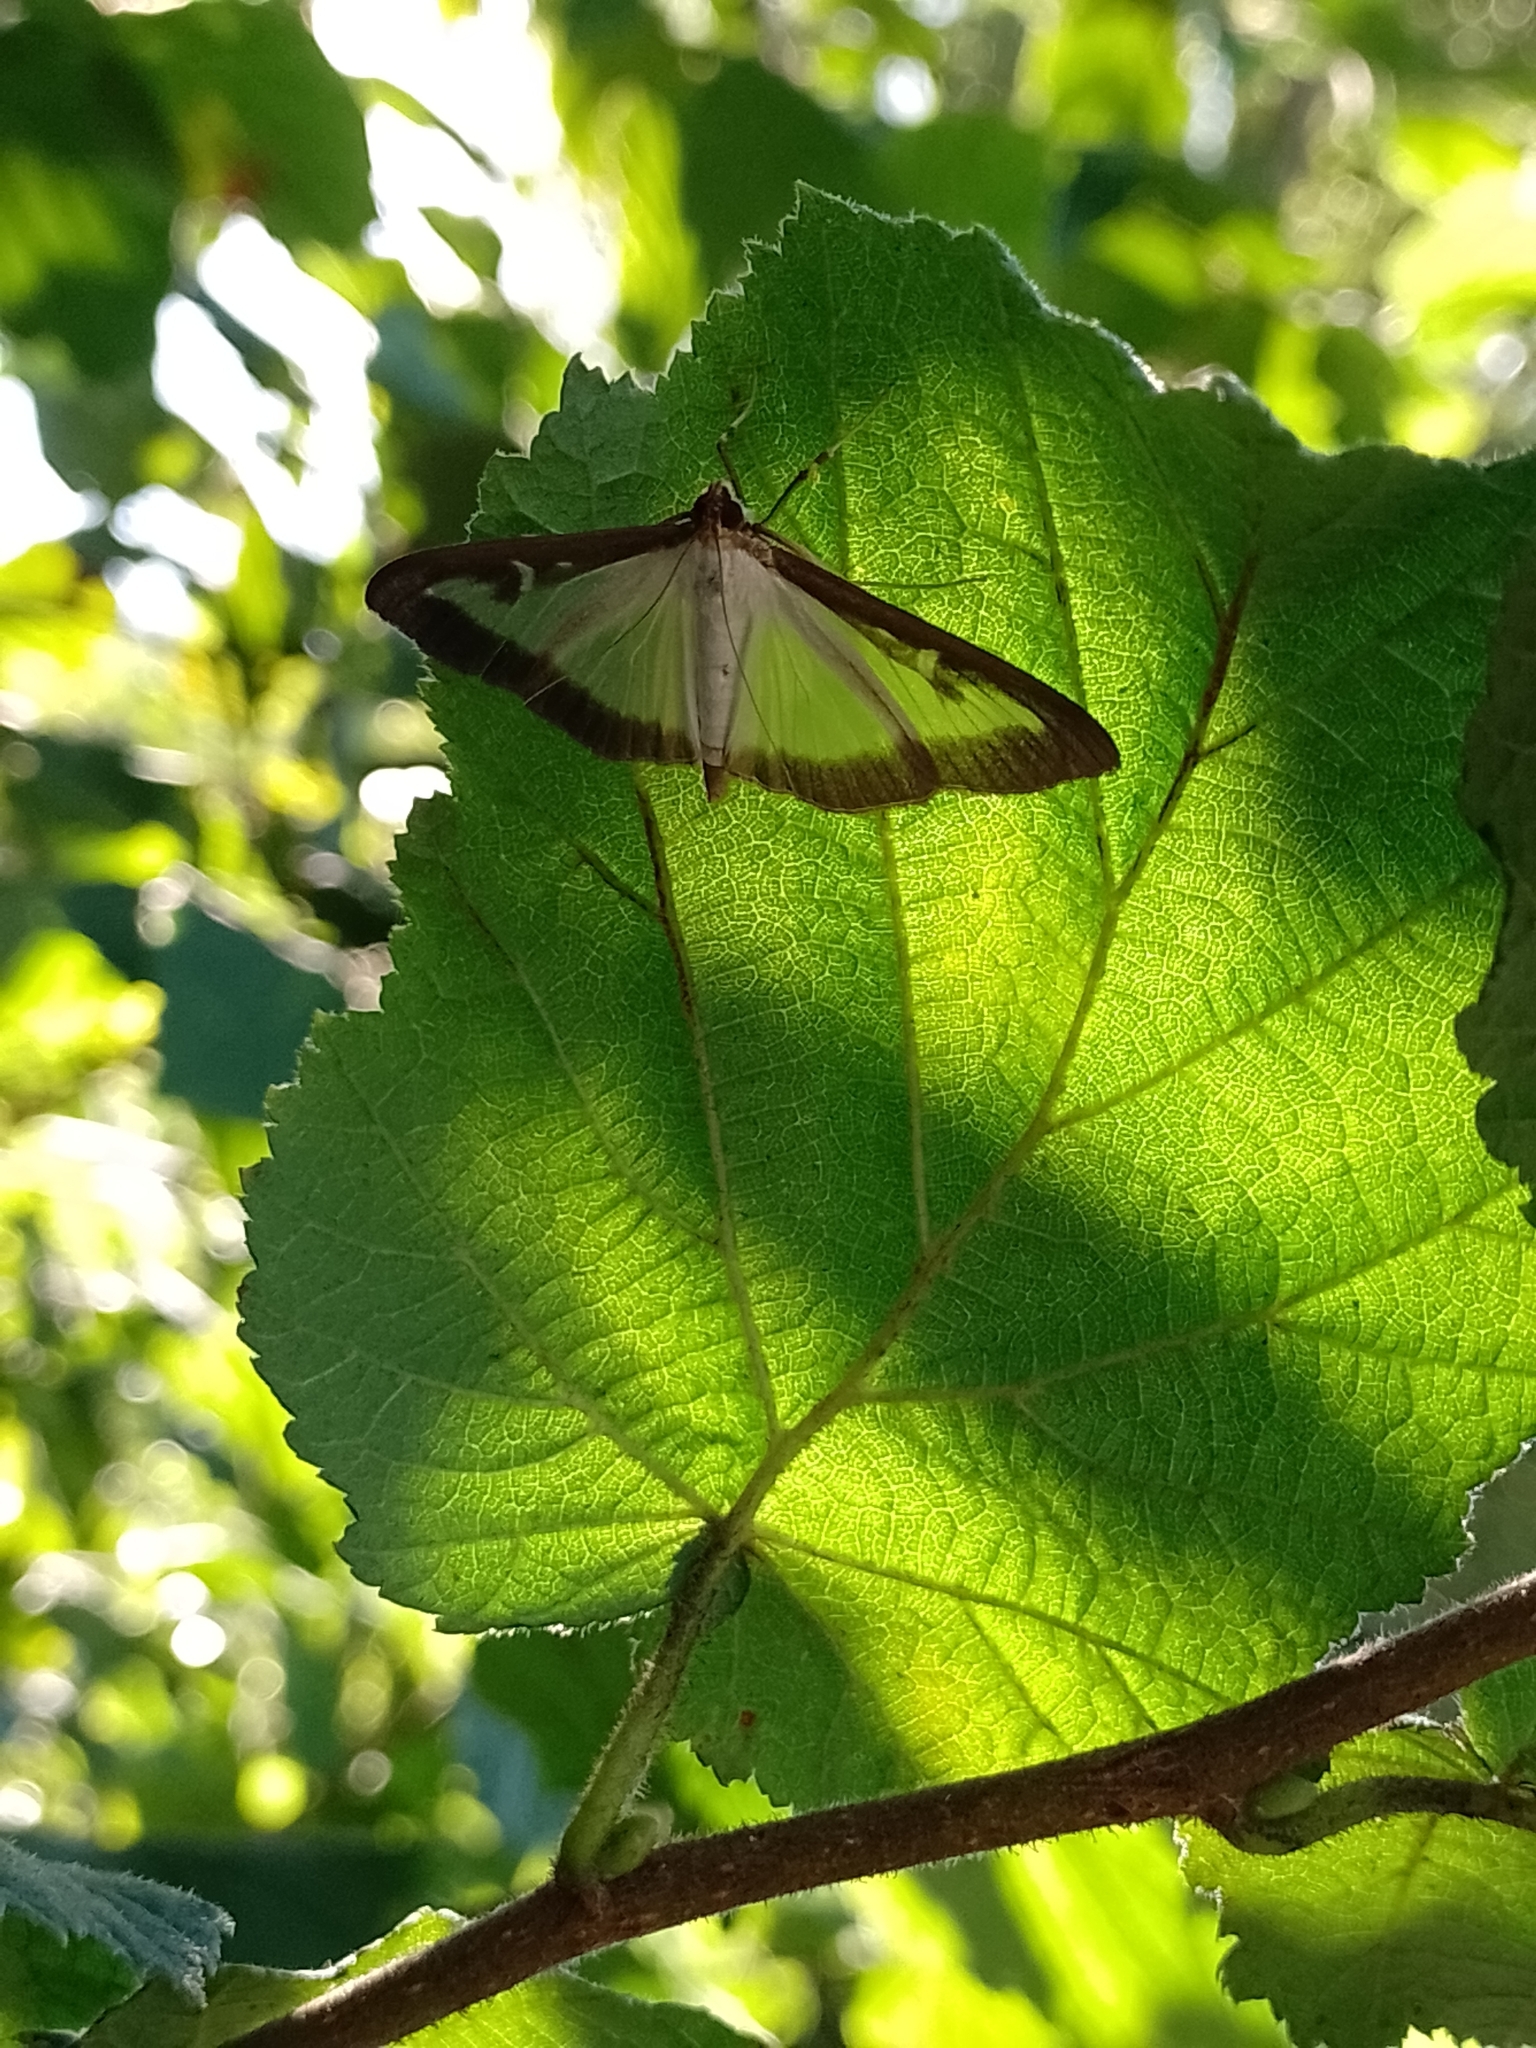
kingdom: Animalia
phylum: Arthropoda
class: Insecta
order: Lepidoptera
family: Crambidae
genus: Cydalima
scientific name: Cydalima perspectalis
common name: Box tree moth
